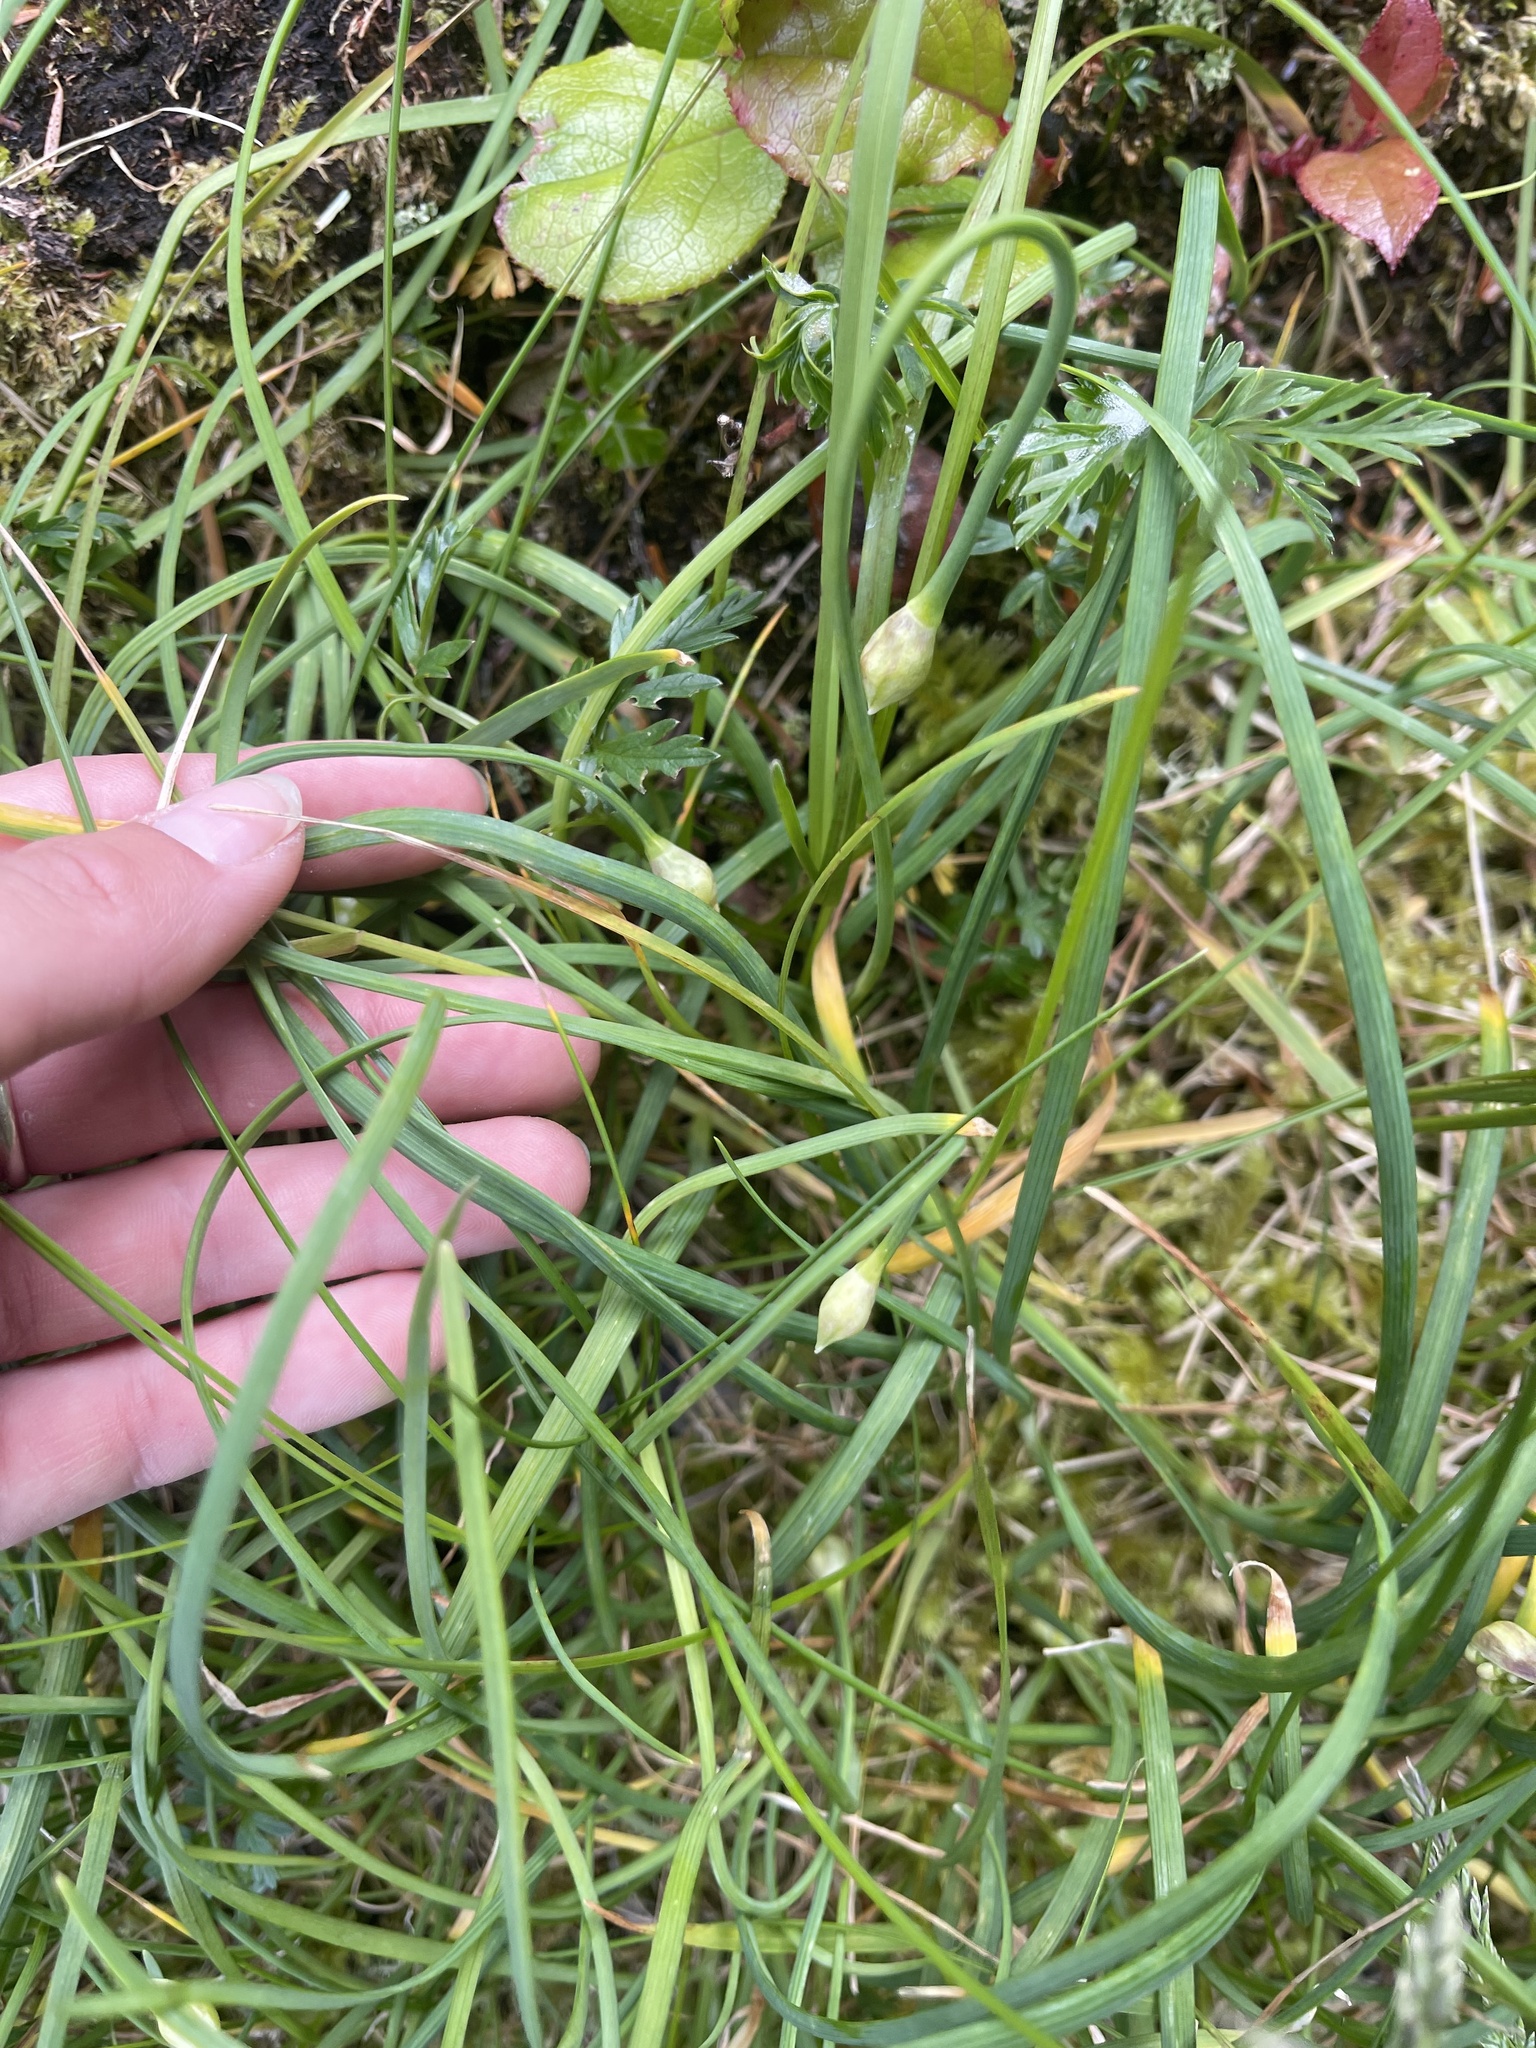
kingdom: Plantae
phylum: Tracheophyta
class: Liliopsida
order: Asparagales
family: Amaryllidaceae
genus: Allium
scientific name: Allium cernuum
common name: Nodding onion
